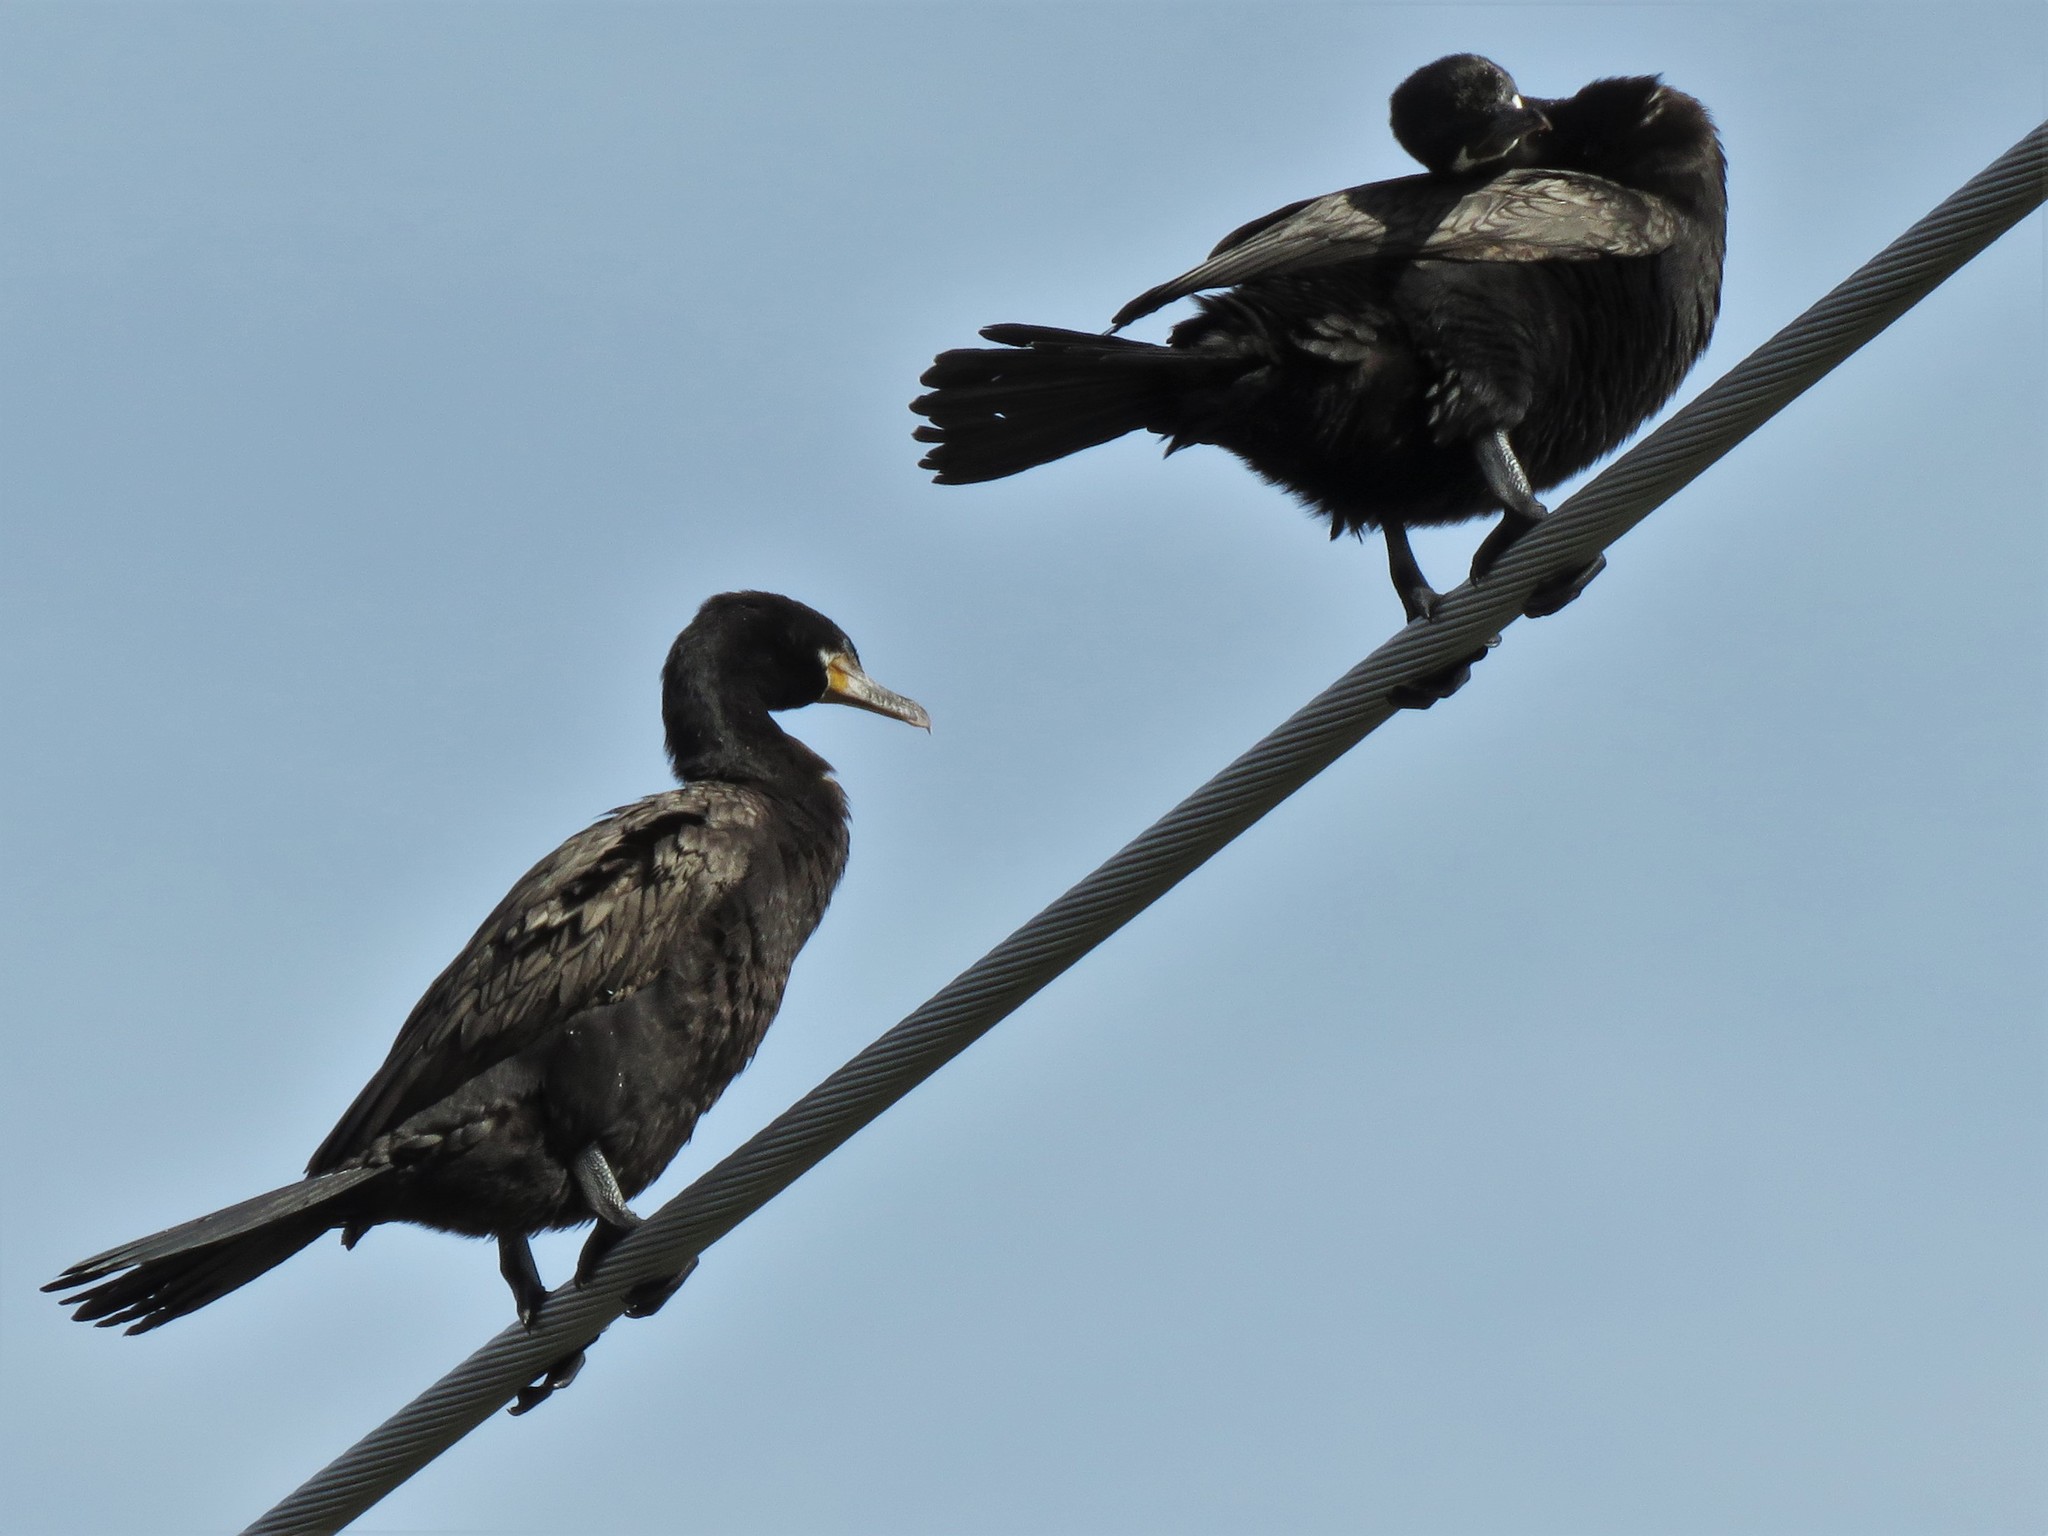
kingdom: Animalia
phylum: Chordata
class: Aves
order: Suliformes
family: Phalacrocoracidae
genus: Phalacrocorax
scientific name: Phalacrocorax brasilianus
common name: Neotropic cormorant
